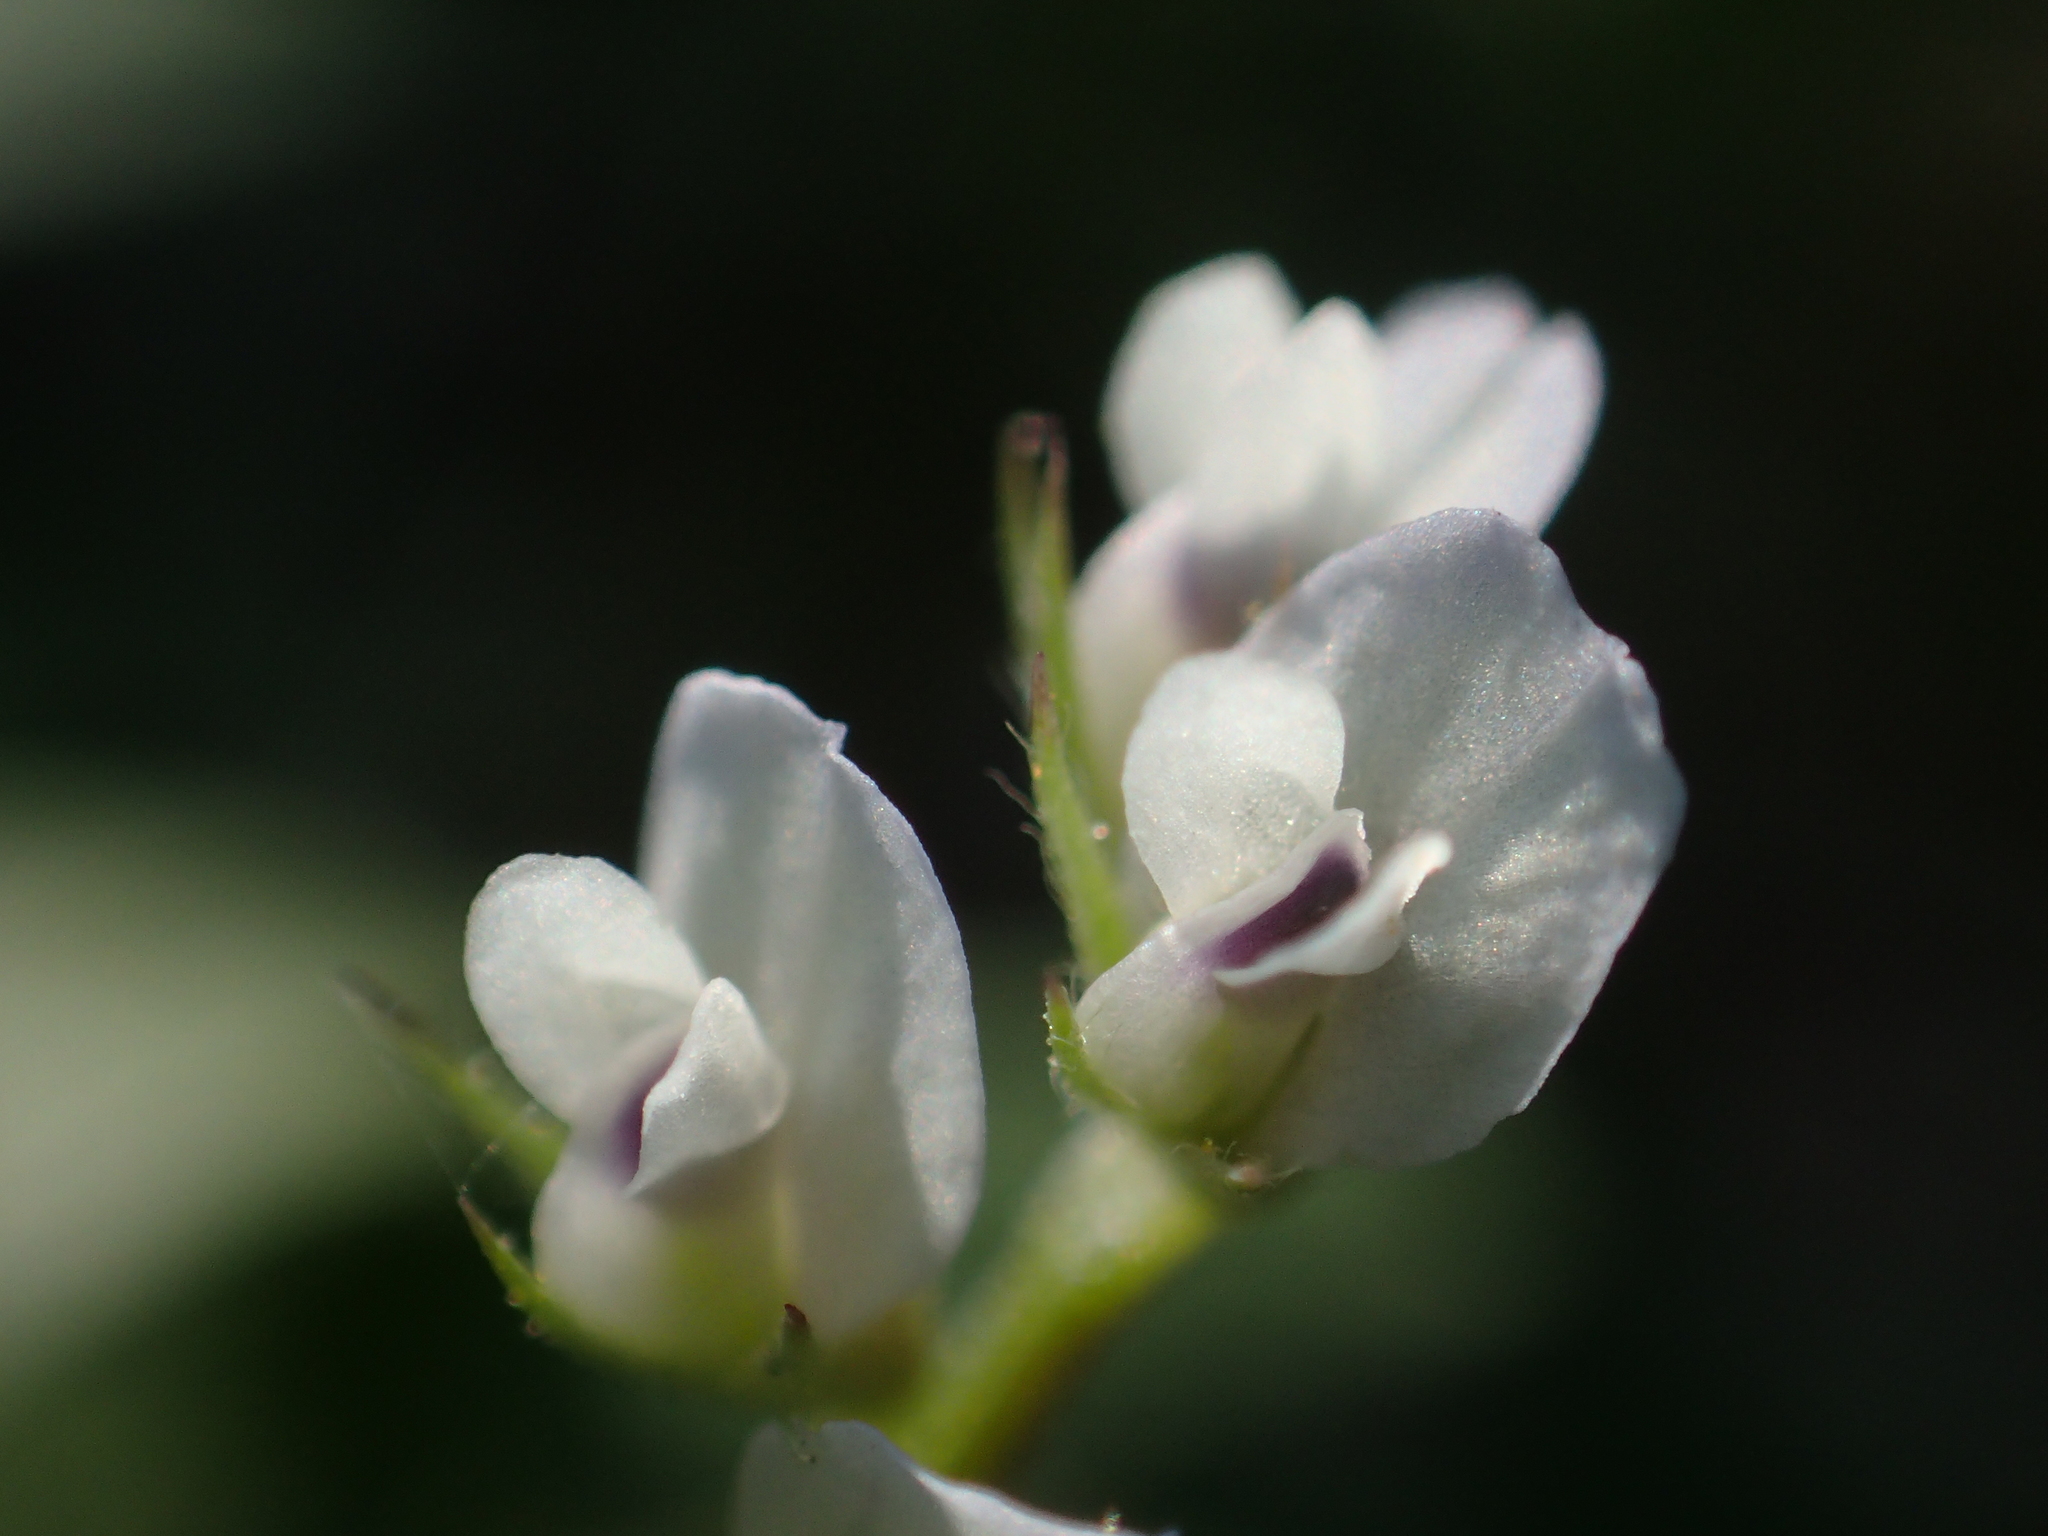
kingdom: Plantae
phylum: Tracheophyta
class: Magnoliopsida
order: Fabales
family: Fabaceae
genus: Vicia
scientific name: Vicia hirsuta
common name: Tiny vetch
